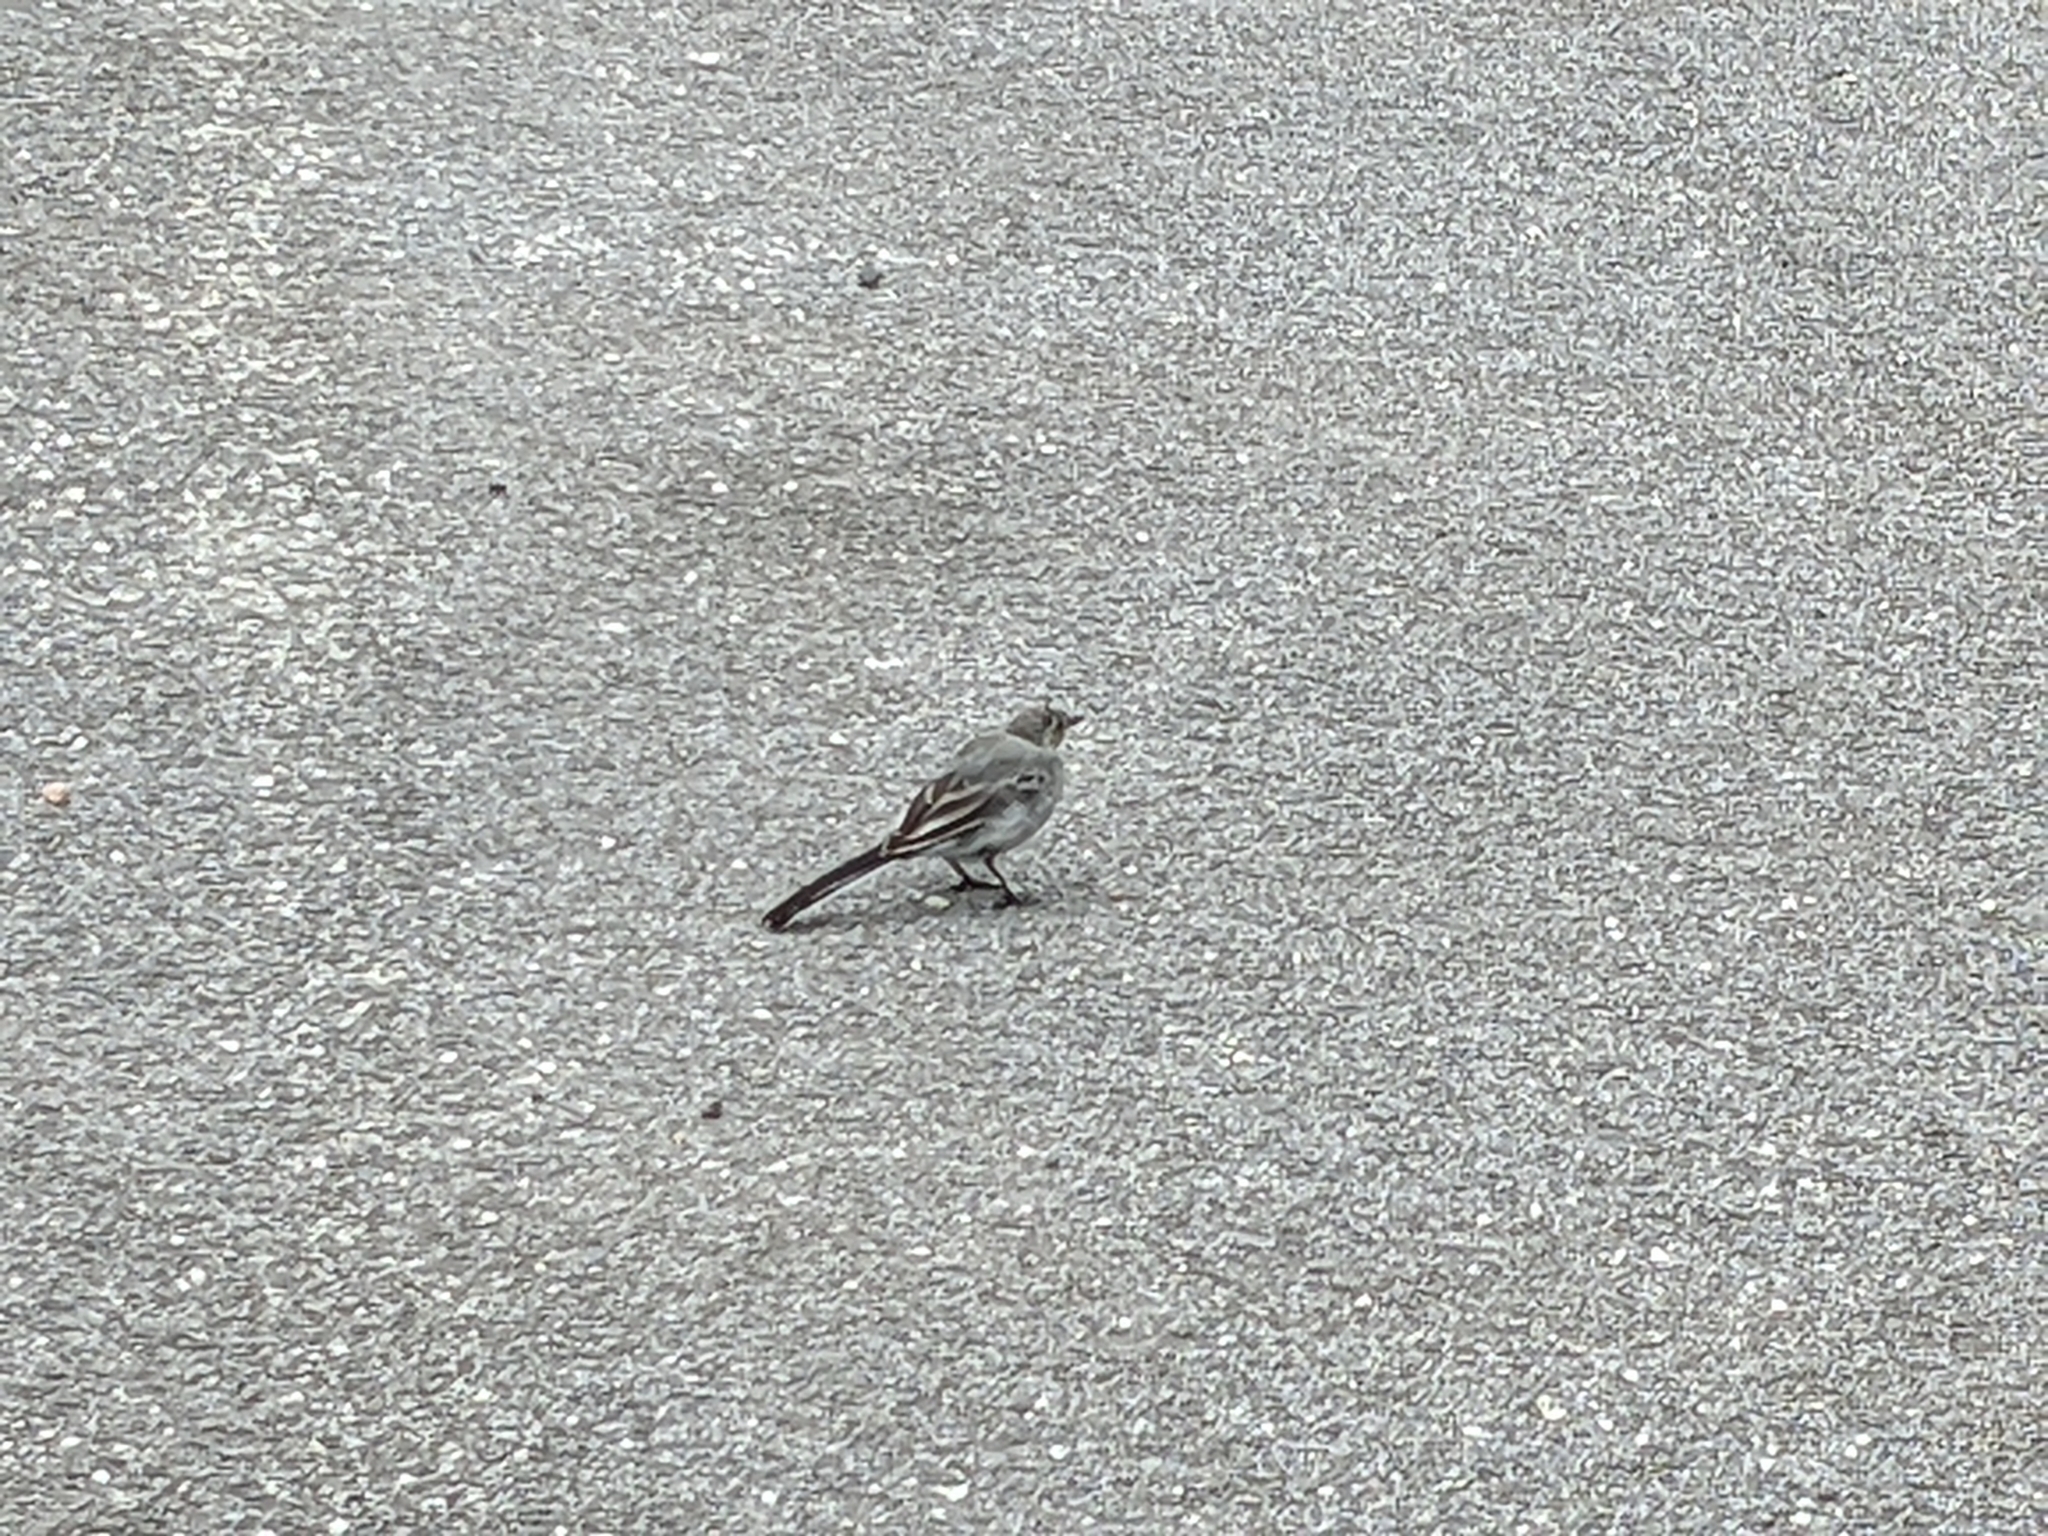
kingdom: Animalia
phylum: Chordata
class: Aves
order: Passeriformes
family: Motacillidae
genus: Motacilla
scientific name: Motacilla alba
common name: White wagtail
